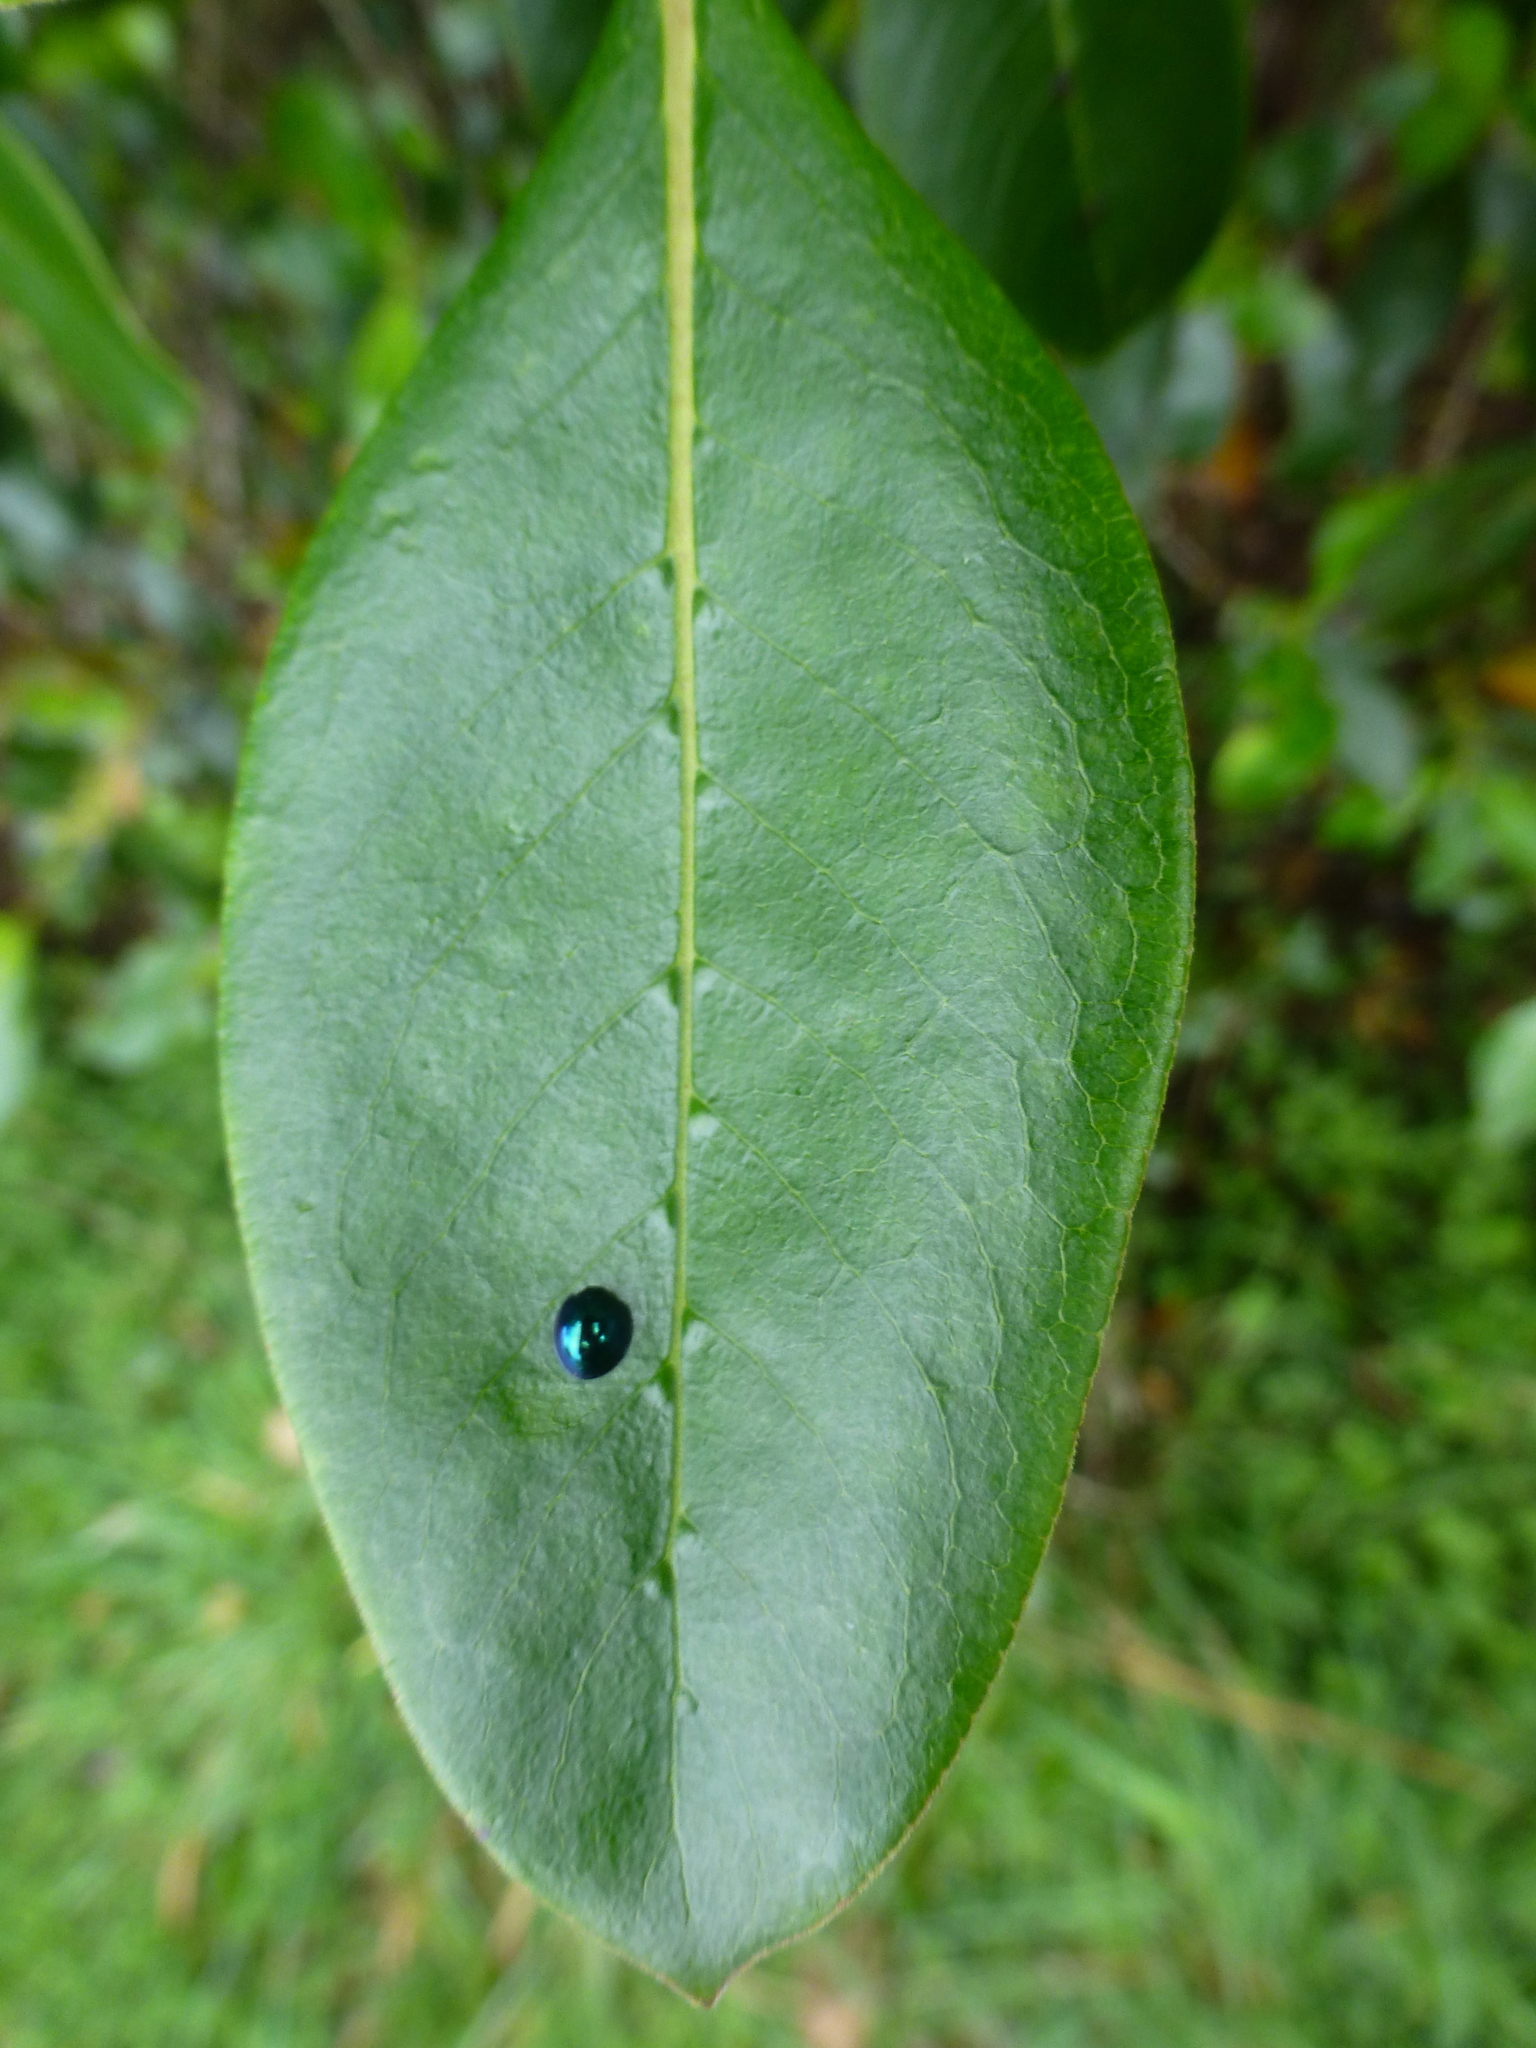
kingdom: Animalia
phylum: Arthropoda
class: Insecta
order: Coleoptera
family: Coccinellidae
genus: Halmus
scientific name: Halmus chalybeus
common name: Steel blue ladybird beetle
